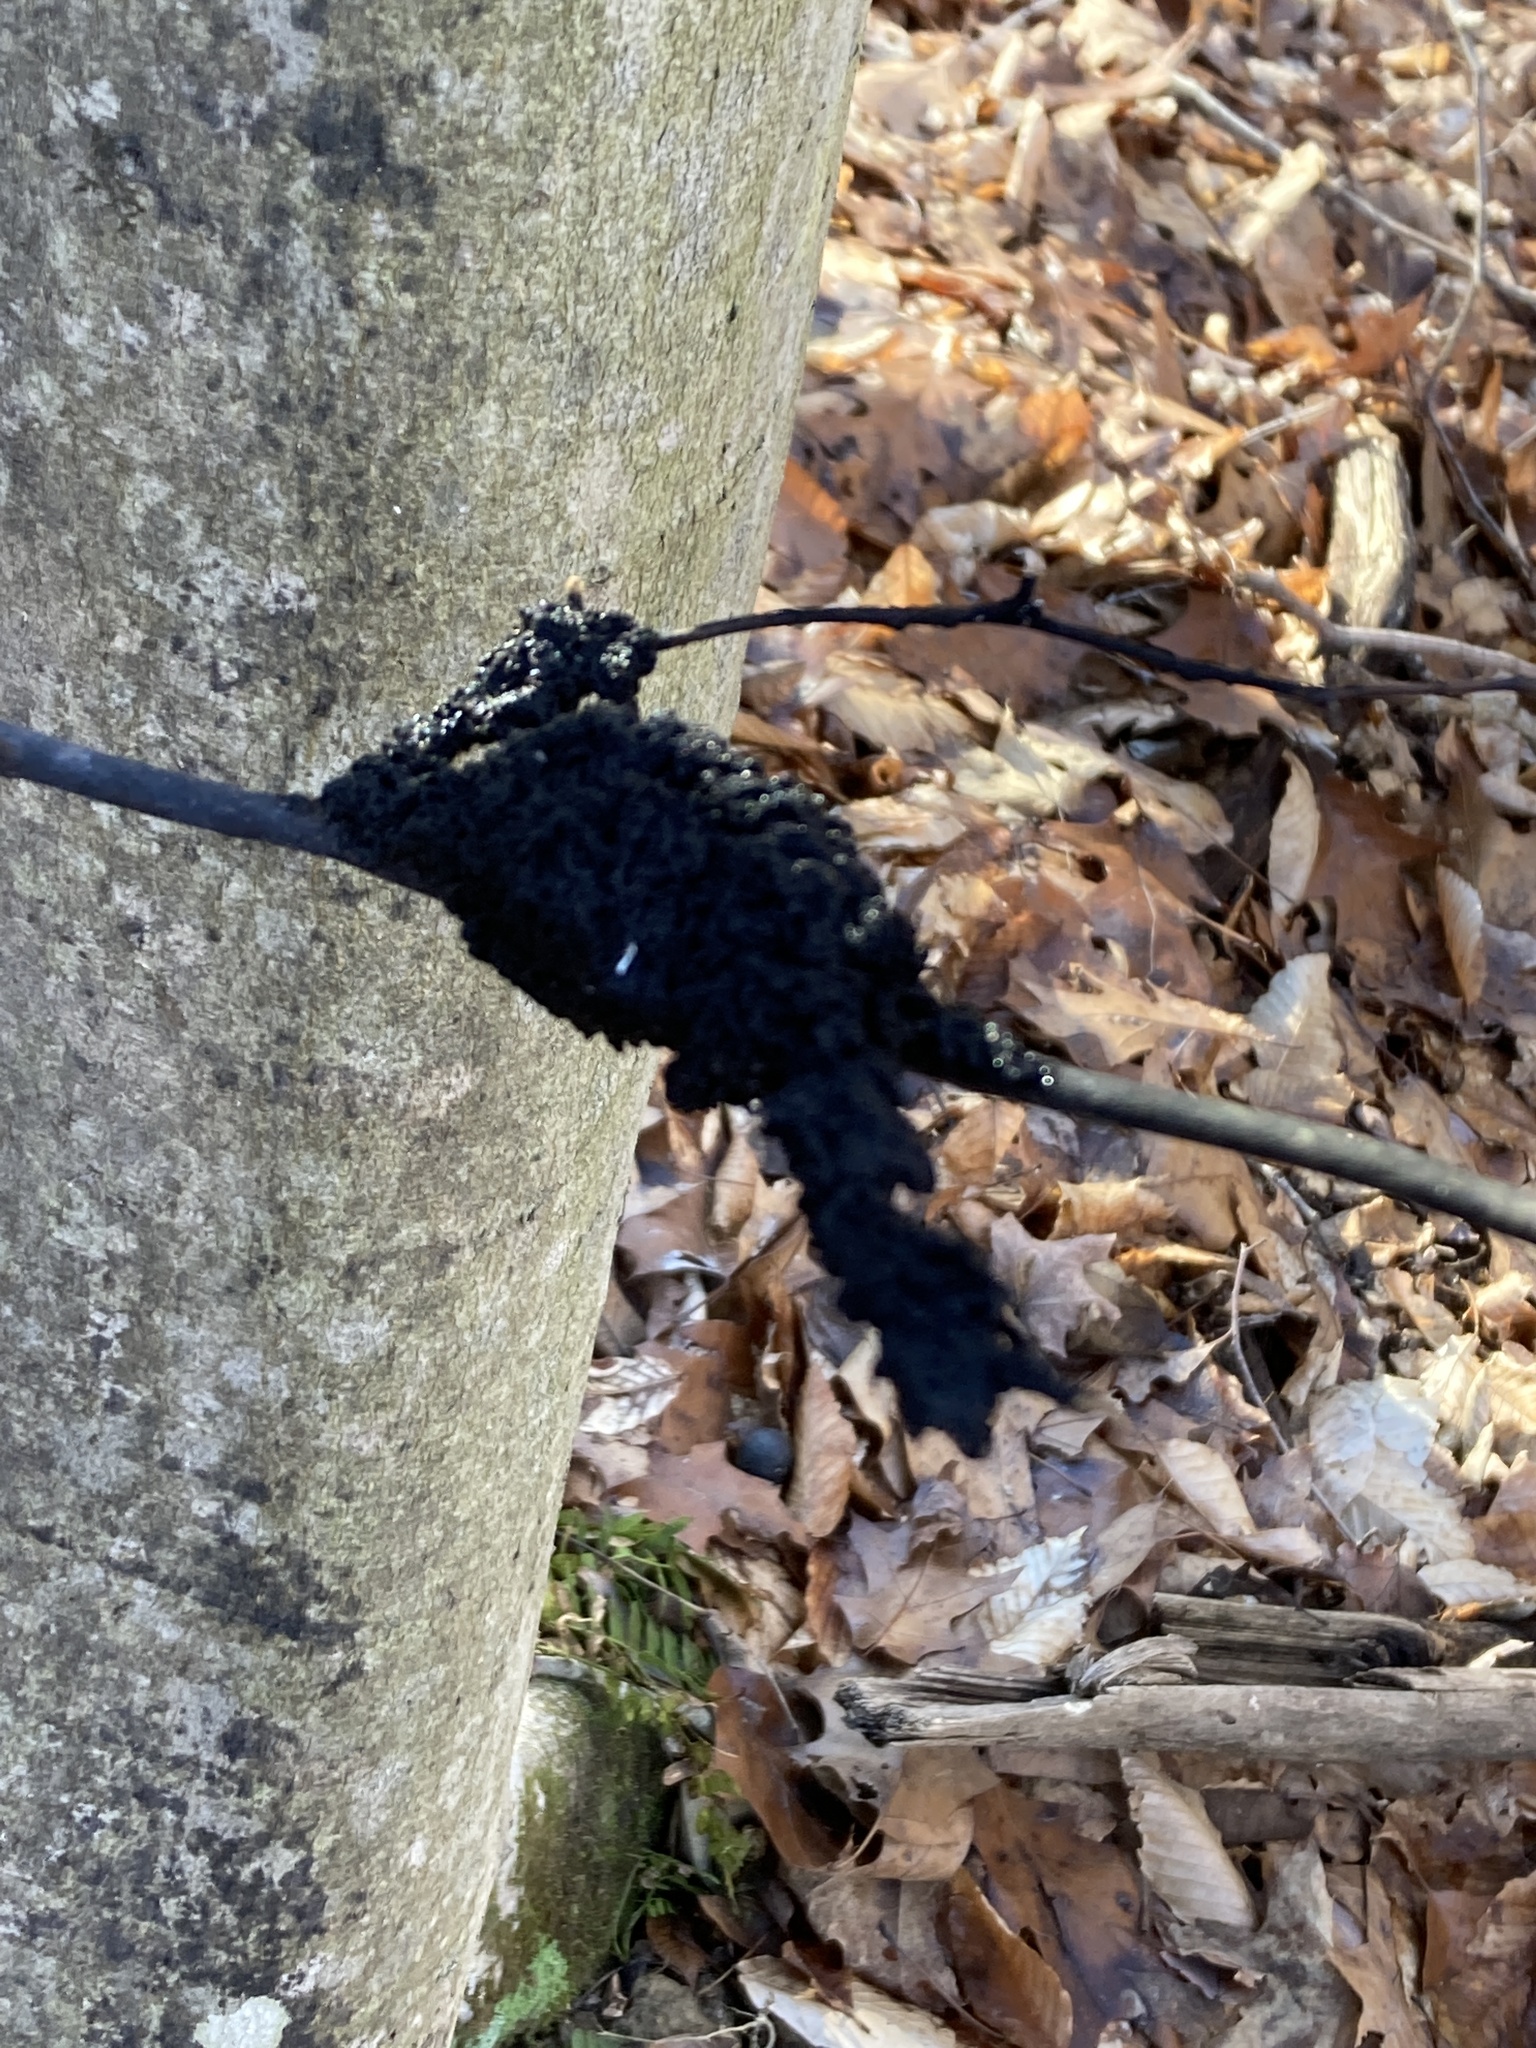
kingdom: Fungi
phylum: Ascomycota
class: Dothideomycetes
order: Capnodiales
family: Capnodiaceae
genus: Scorias
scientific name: Scorias spongiosa
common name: Black sooty mold
